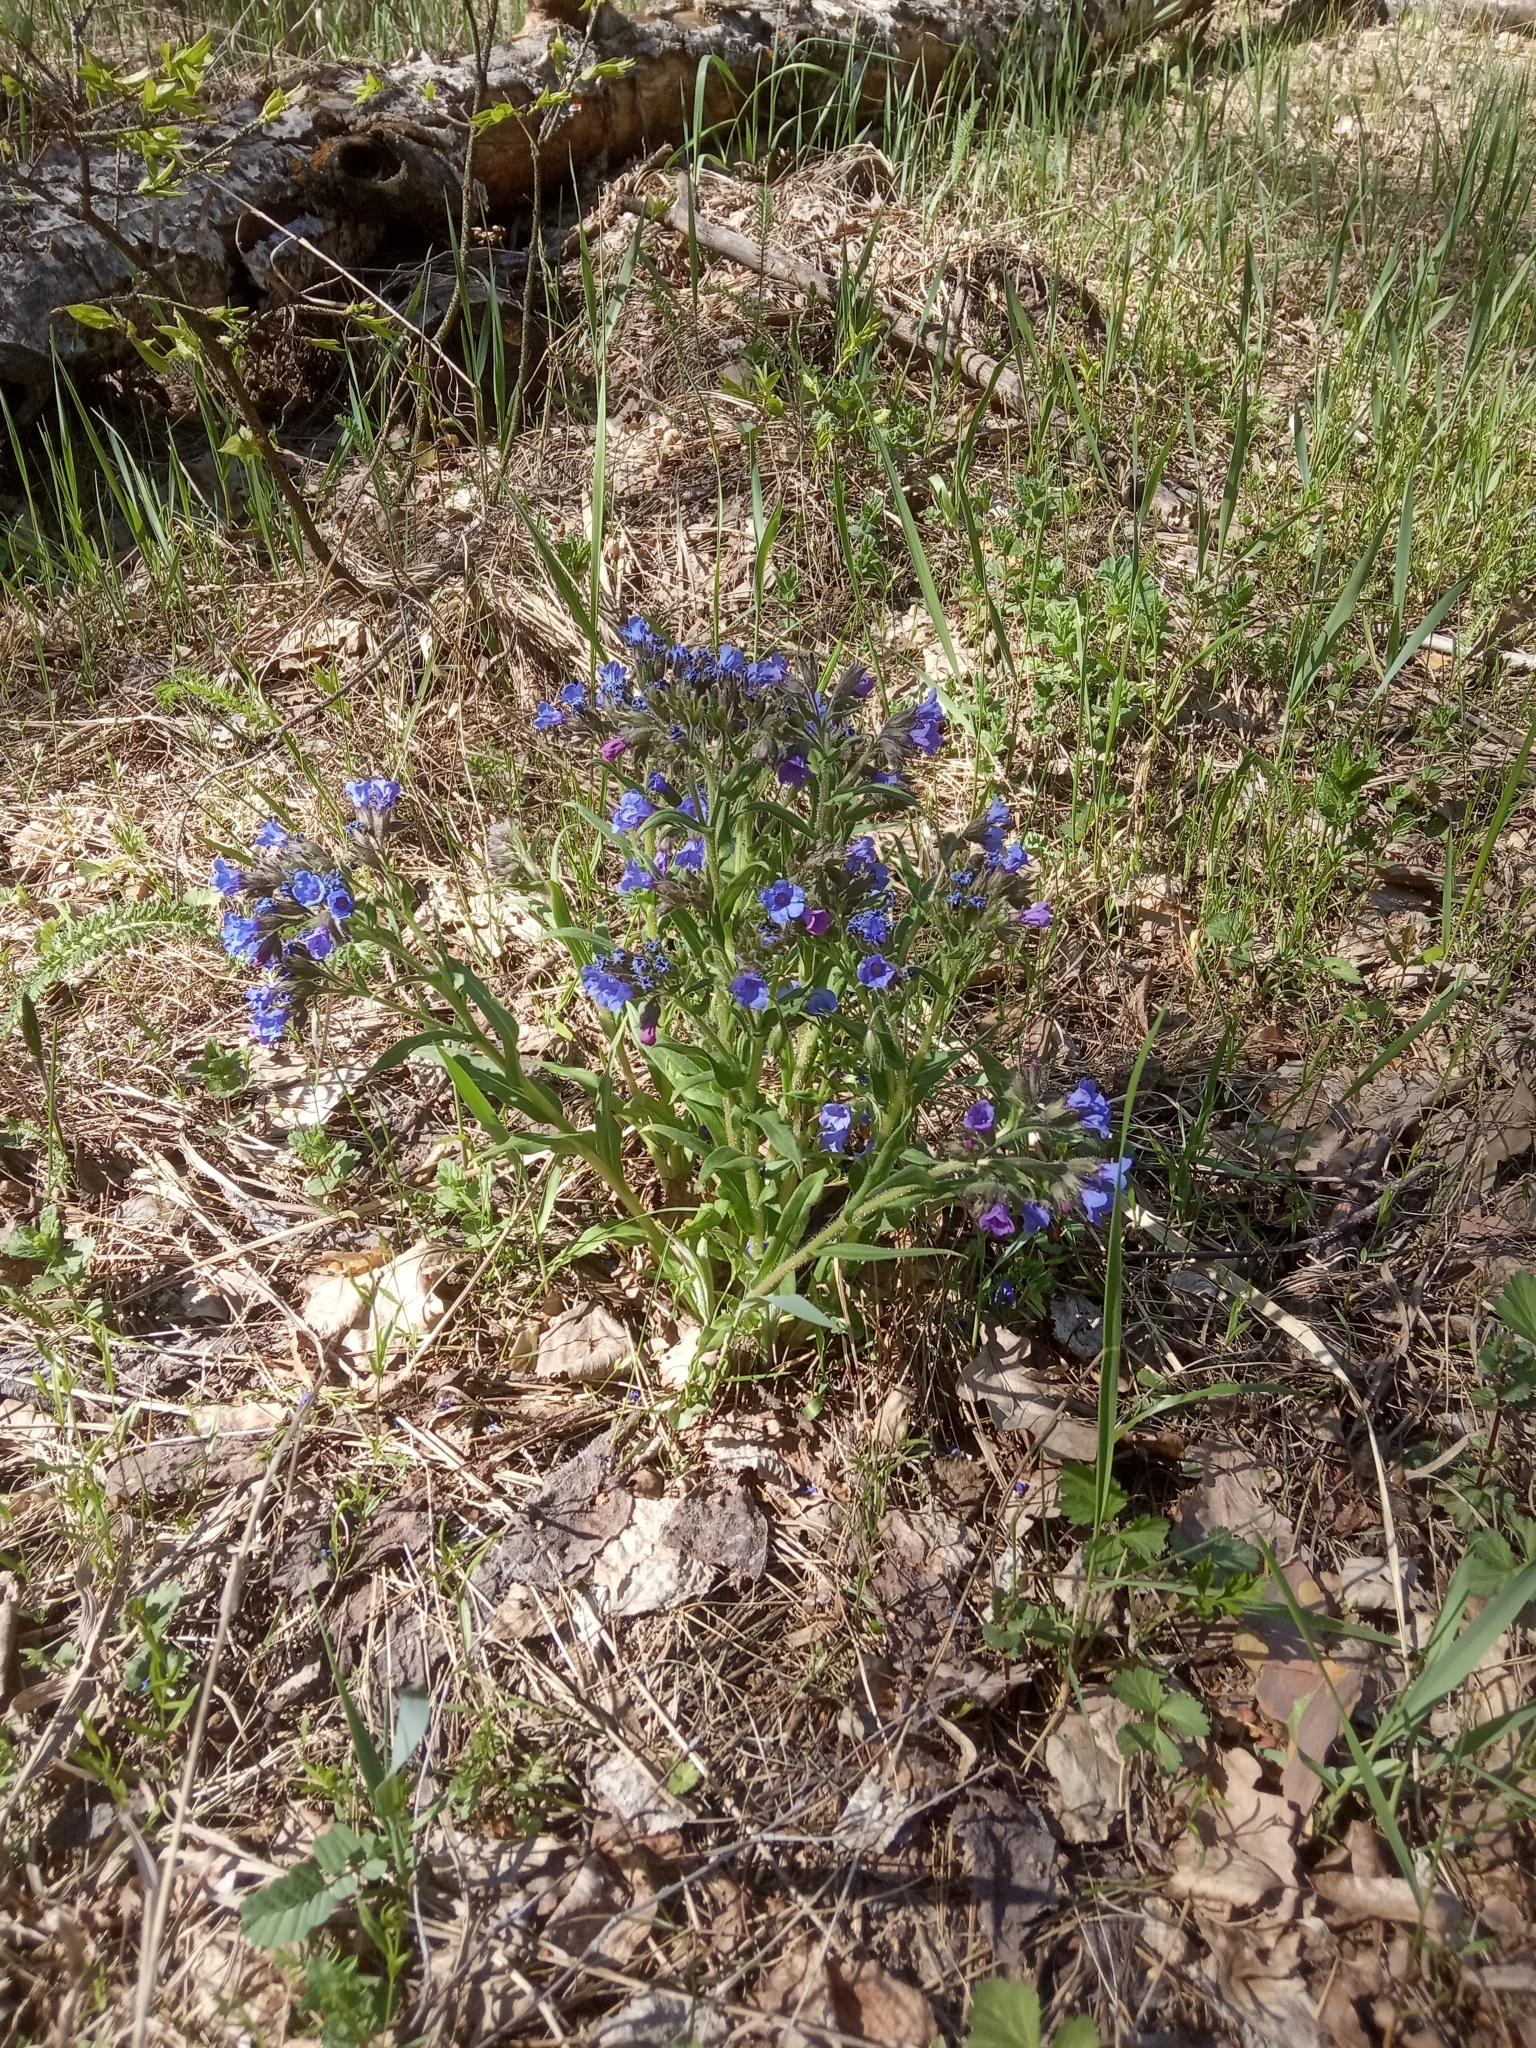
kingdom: Plantae
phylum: Tracheophyta
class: Magnoliopsida
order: Boraginales
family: Boraginaceae
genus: Pulmonaria
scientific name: Pulmonaria angustifolia
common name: Blue cowslip
